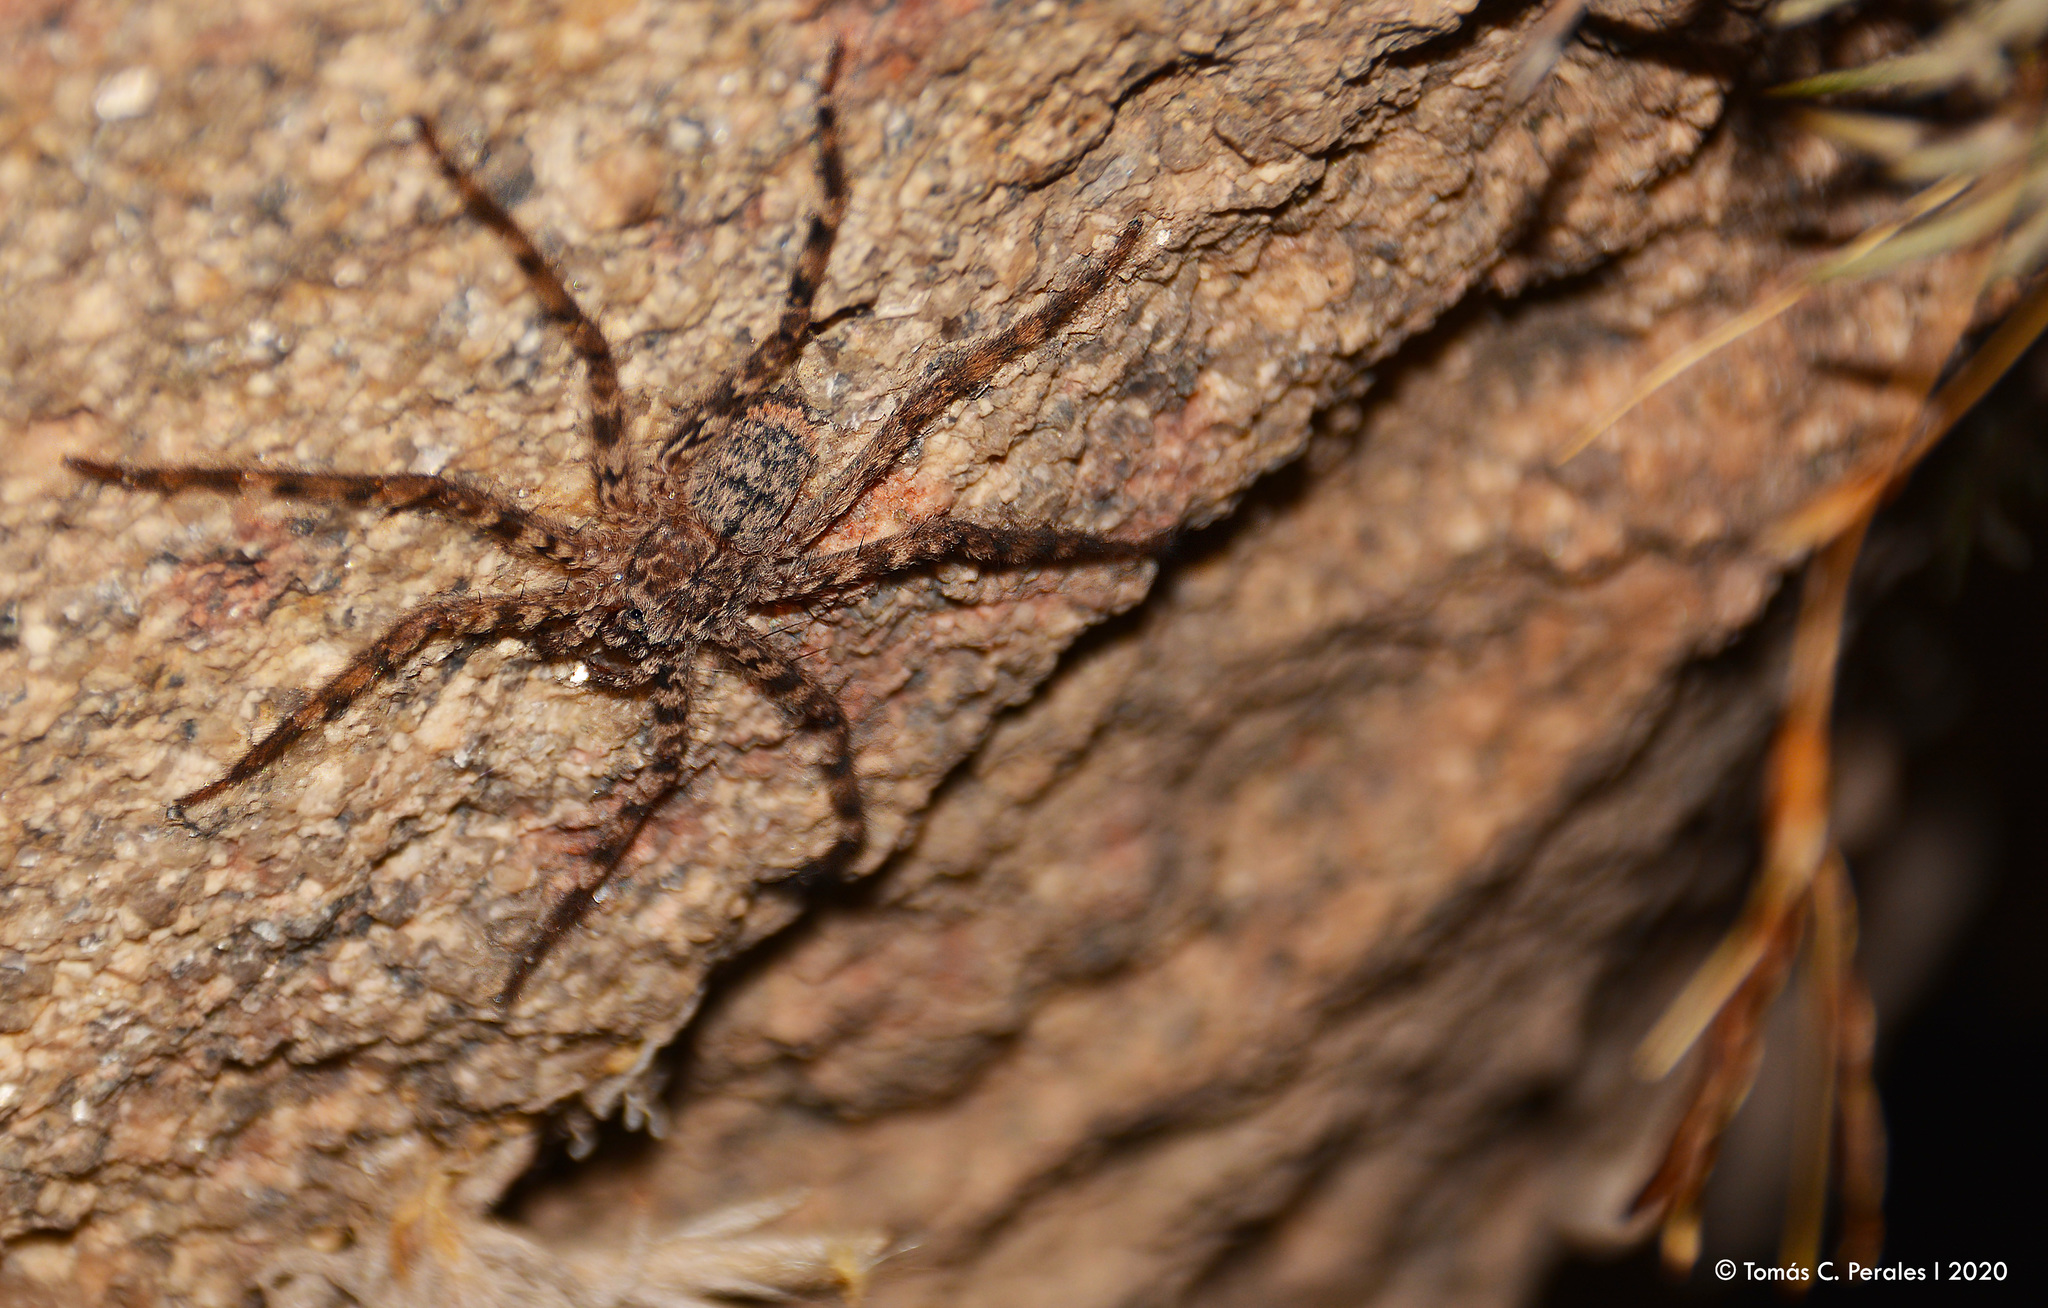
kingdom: Animalia
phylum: Arthropoda
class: Arachnida
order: Araneae
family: Selenopidae
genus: Selenops
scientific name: Selenops
